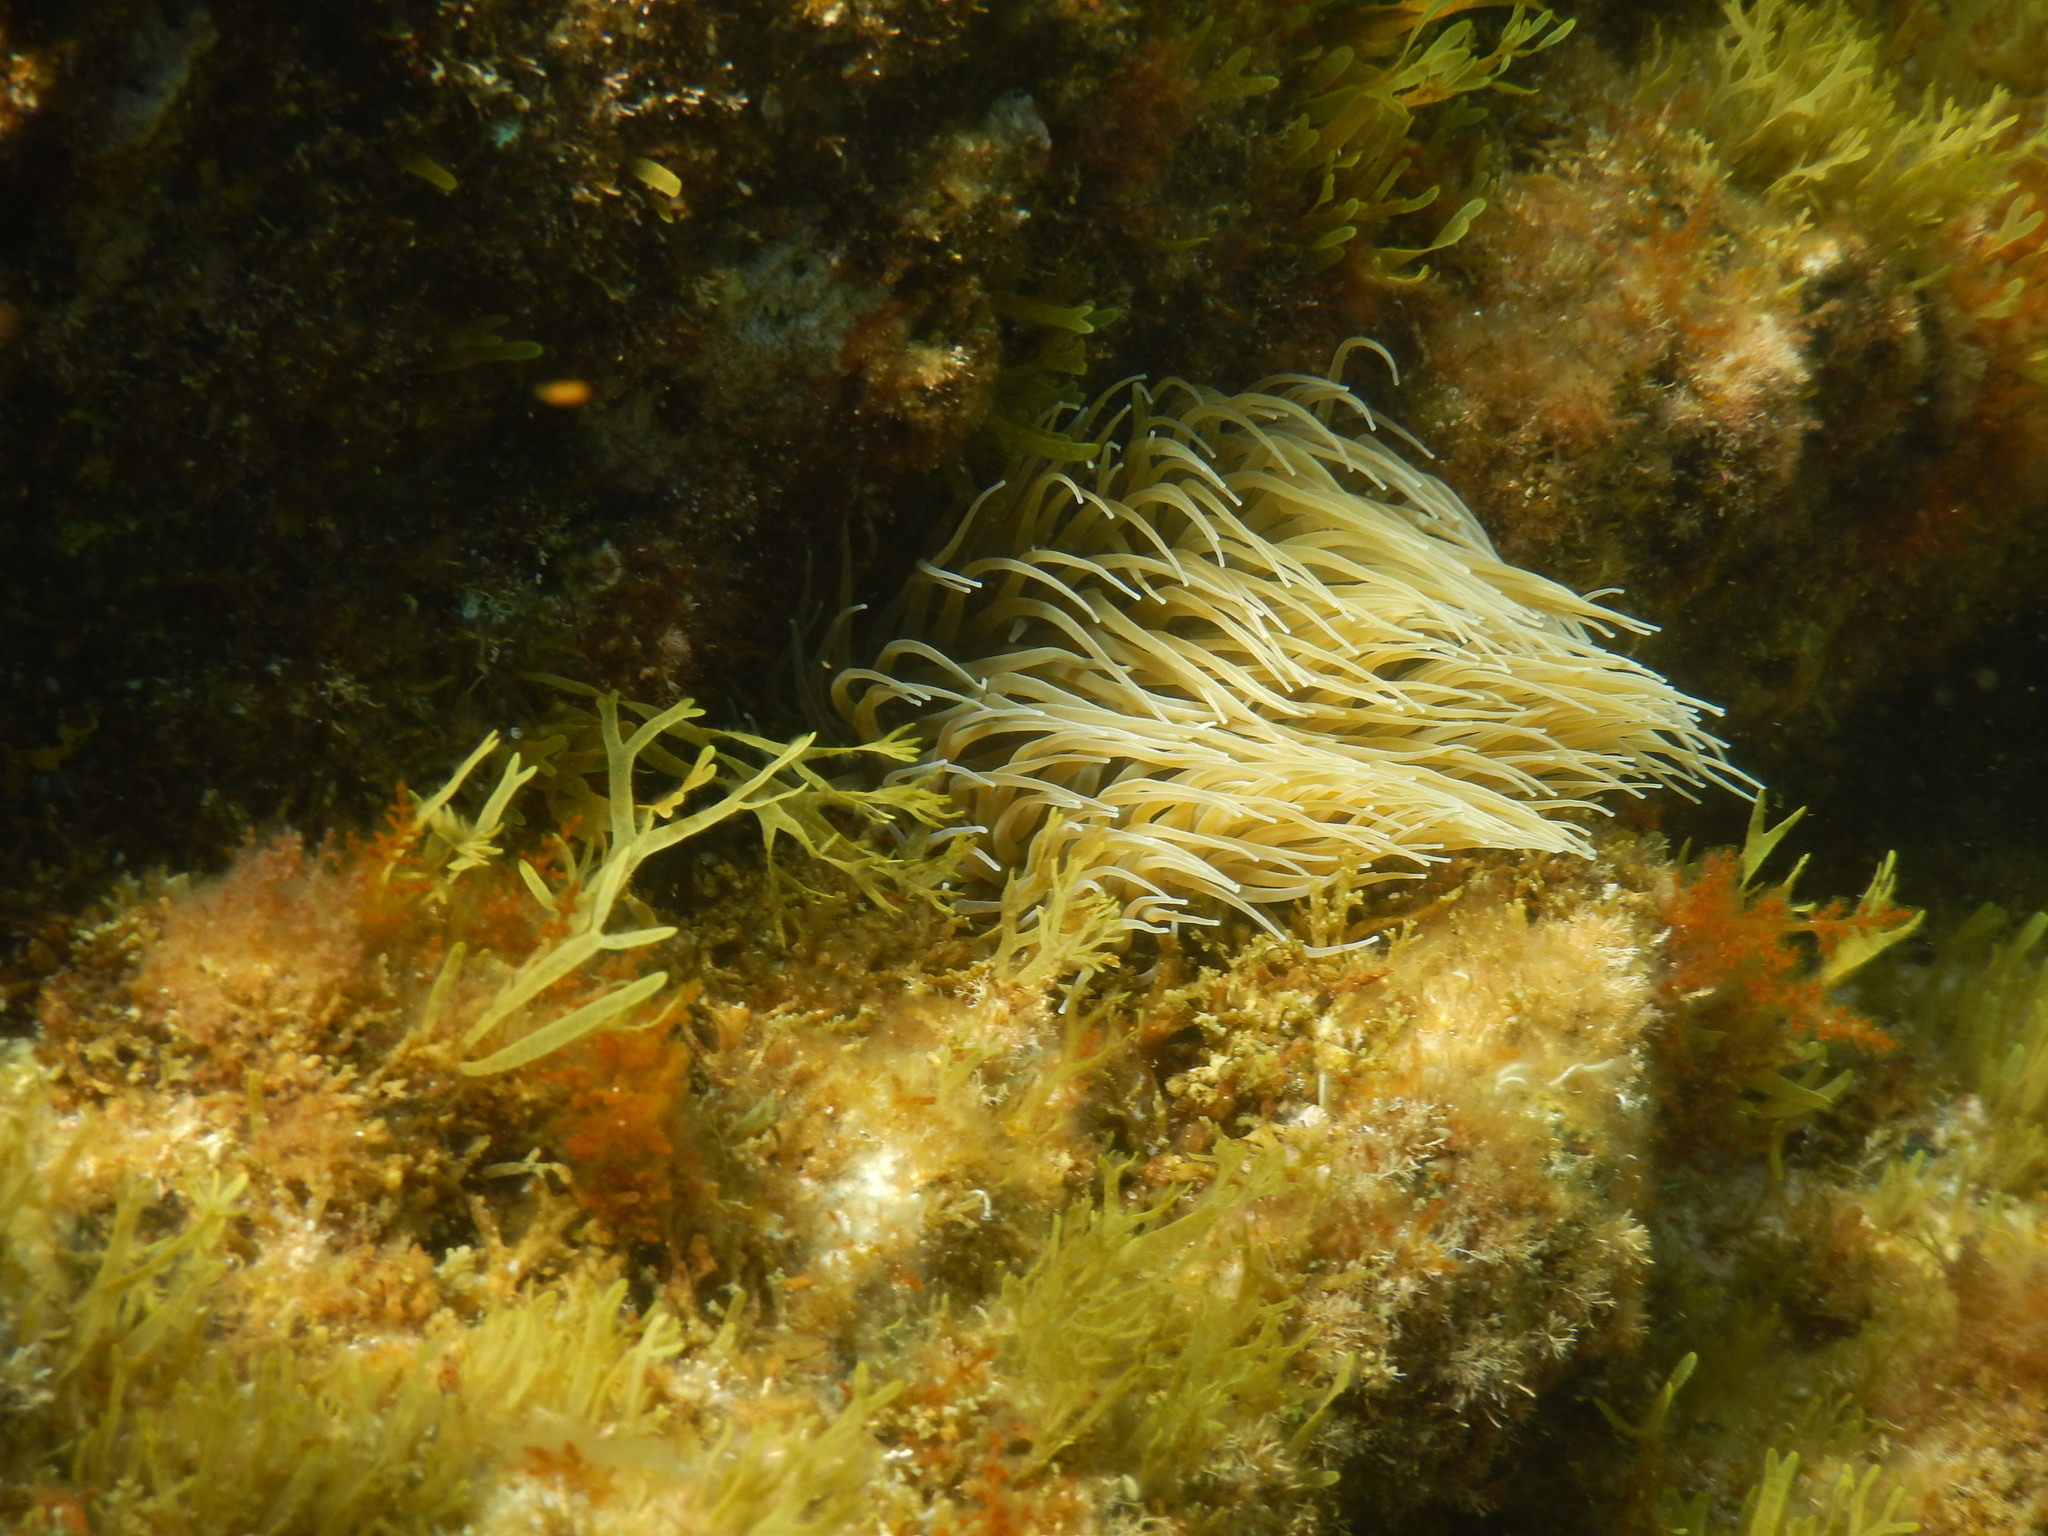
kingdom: Animalia
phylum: Cnidaria
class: Anthozoa
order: Actiniaria
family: Actiniidae
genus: Anemonia
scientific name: Anemonia viridis
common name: Snakelocks anemone
